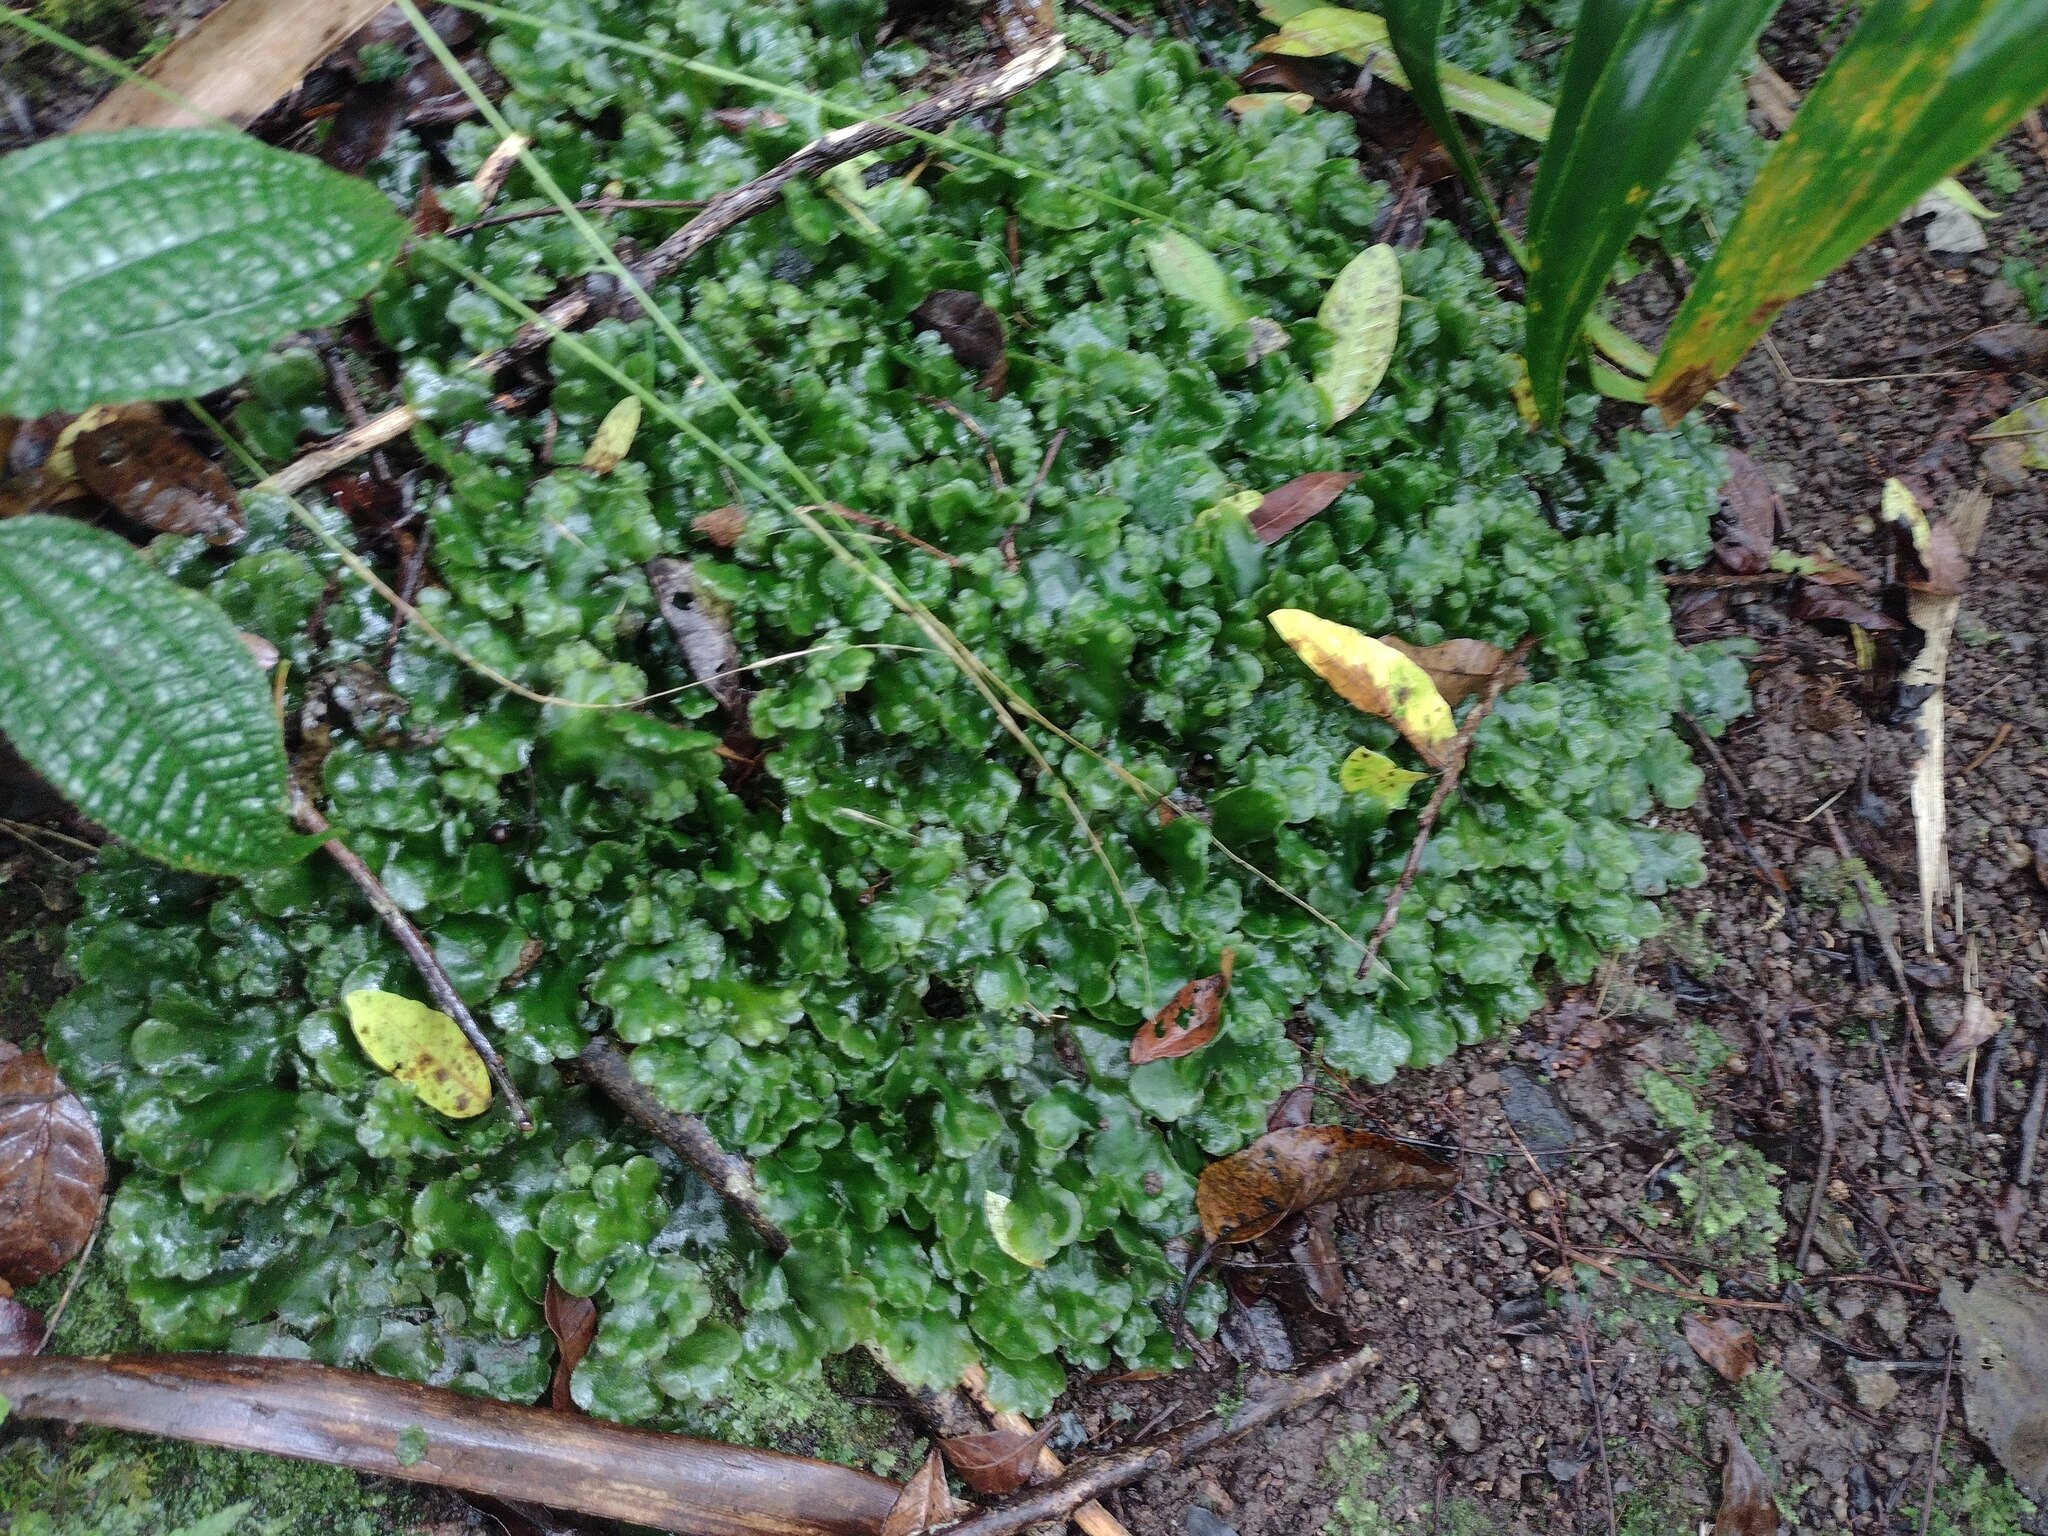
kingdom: Plantae
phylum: Marchantiophyta
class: Marchantiopsida
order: Marchantiales
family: Dumortieraceae
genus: Dumortiera
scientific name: Dumortiera hirsuta
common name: Dumortier's liverwort
